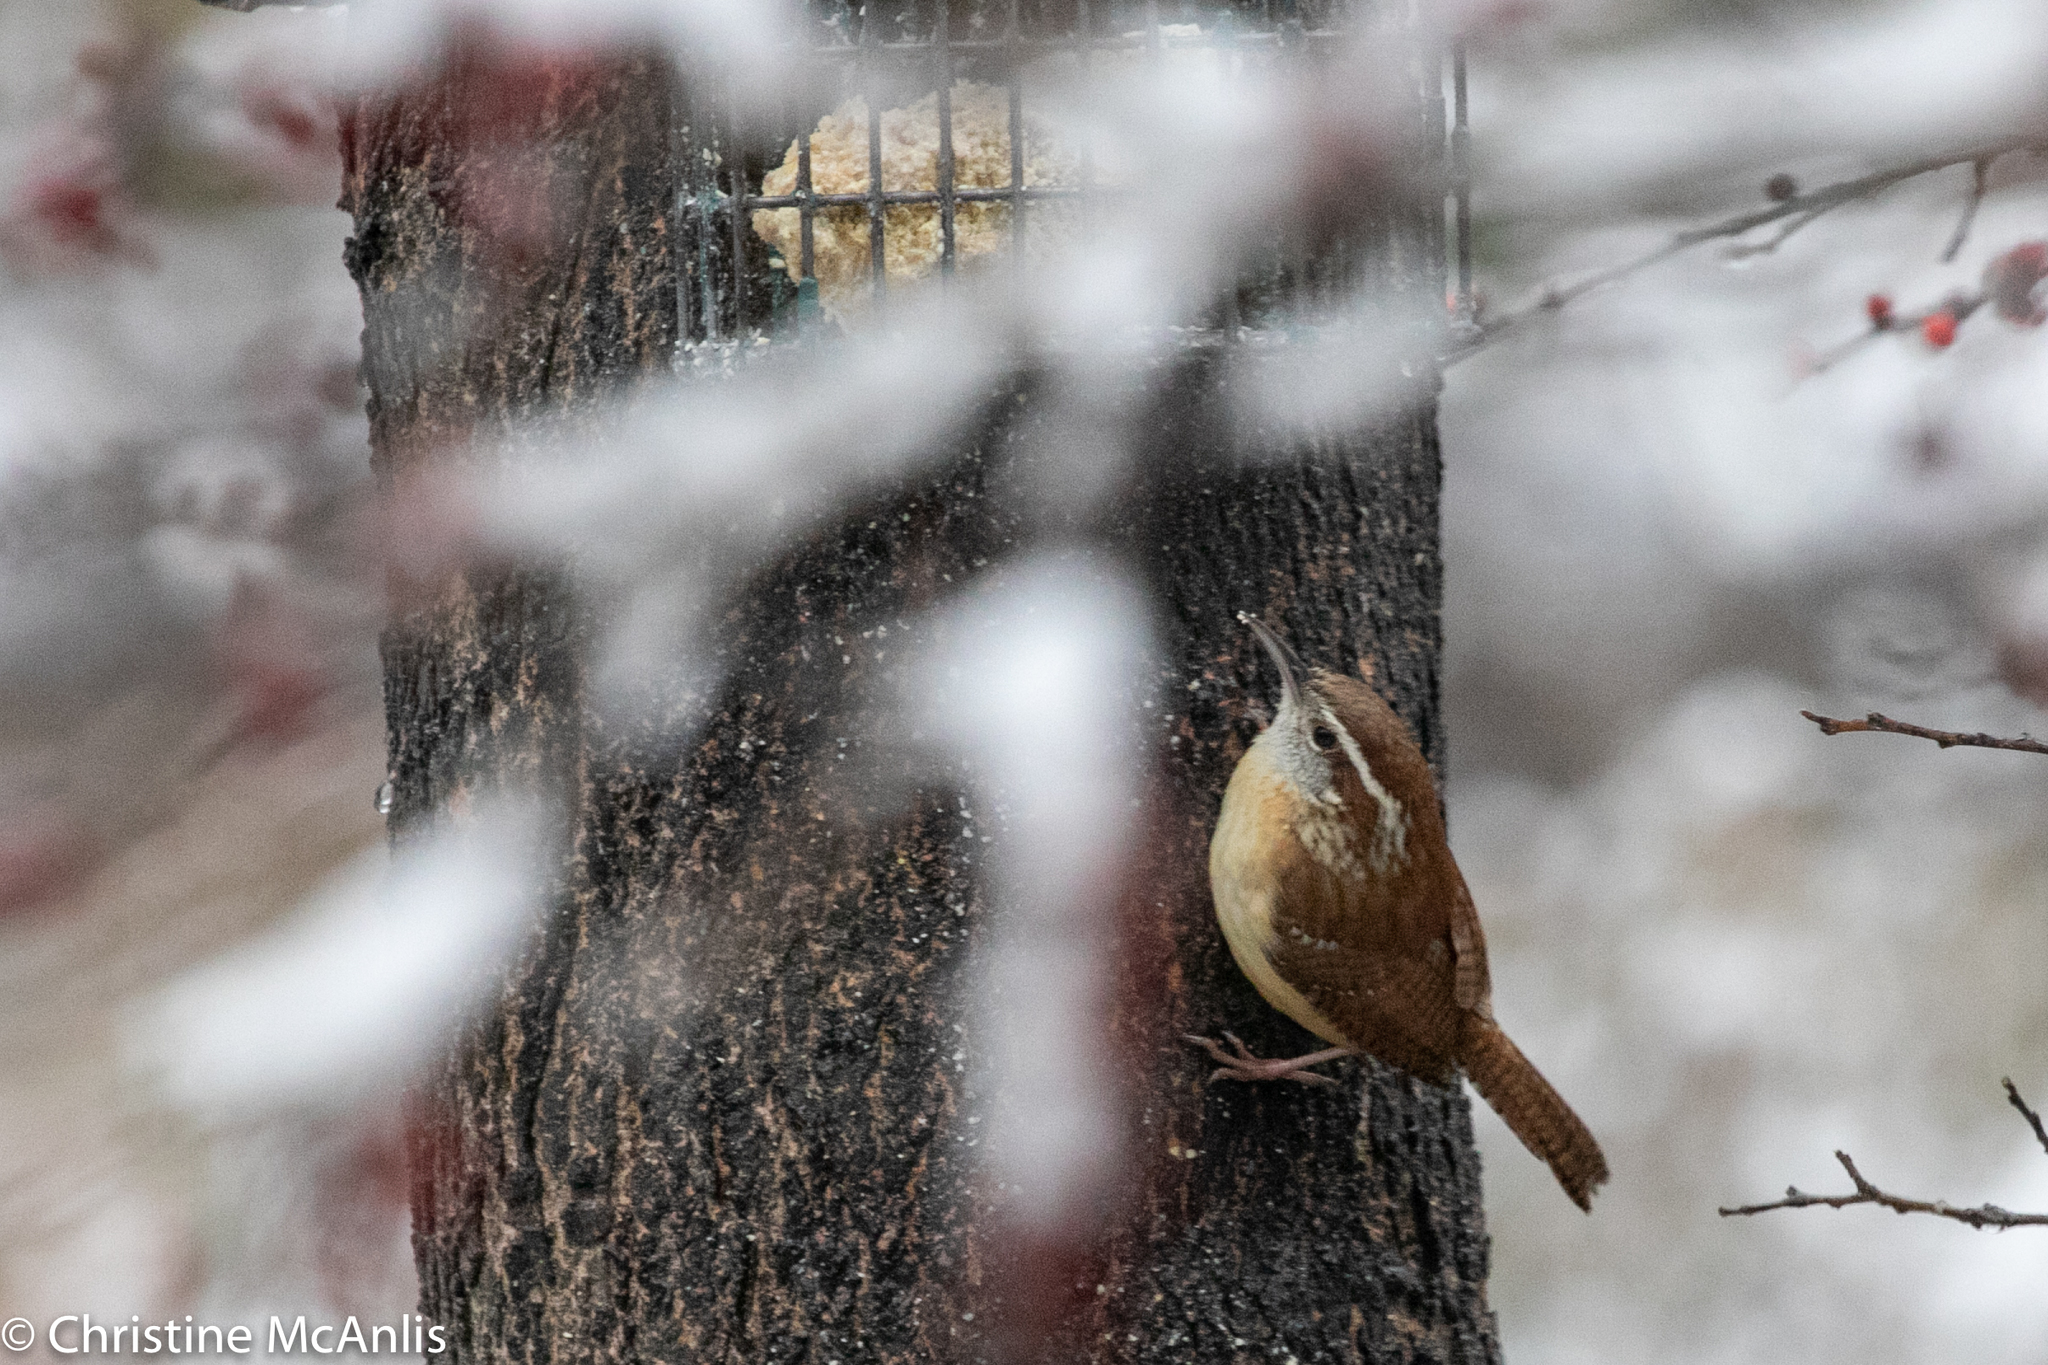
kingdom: Animalia
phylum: Chordata
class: Aves
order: Passeriformes
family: Troglodytidae
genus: Thryothorus
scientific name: Thryothorus ludovicianus
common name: Carolina wren
